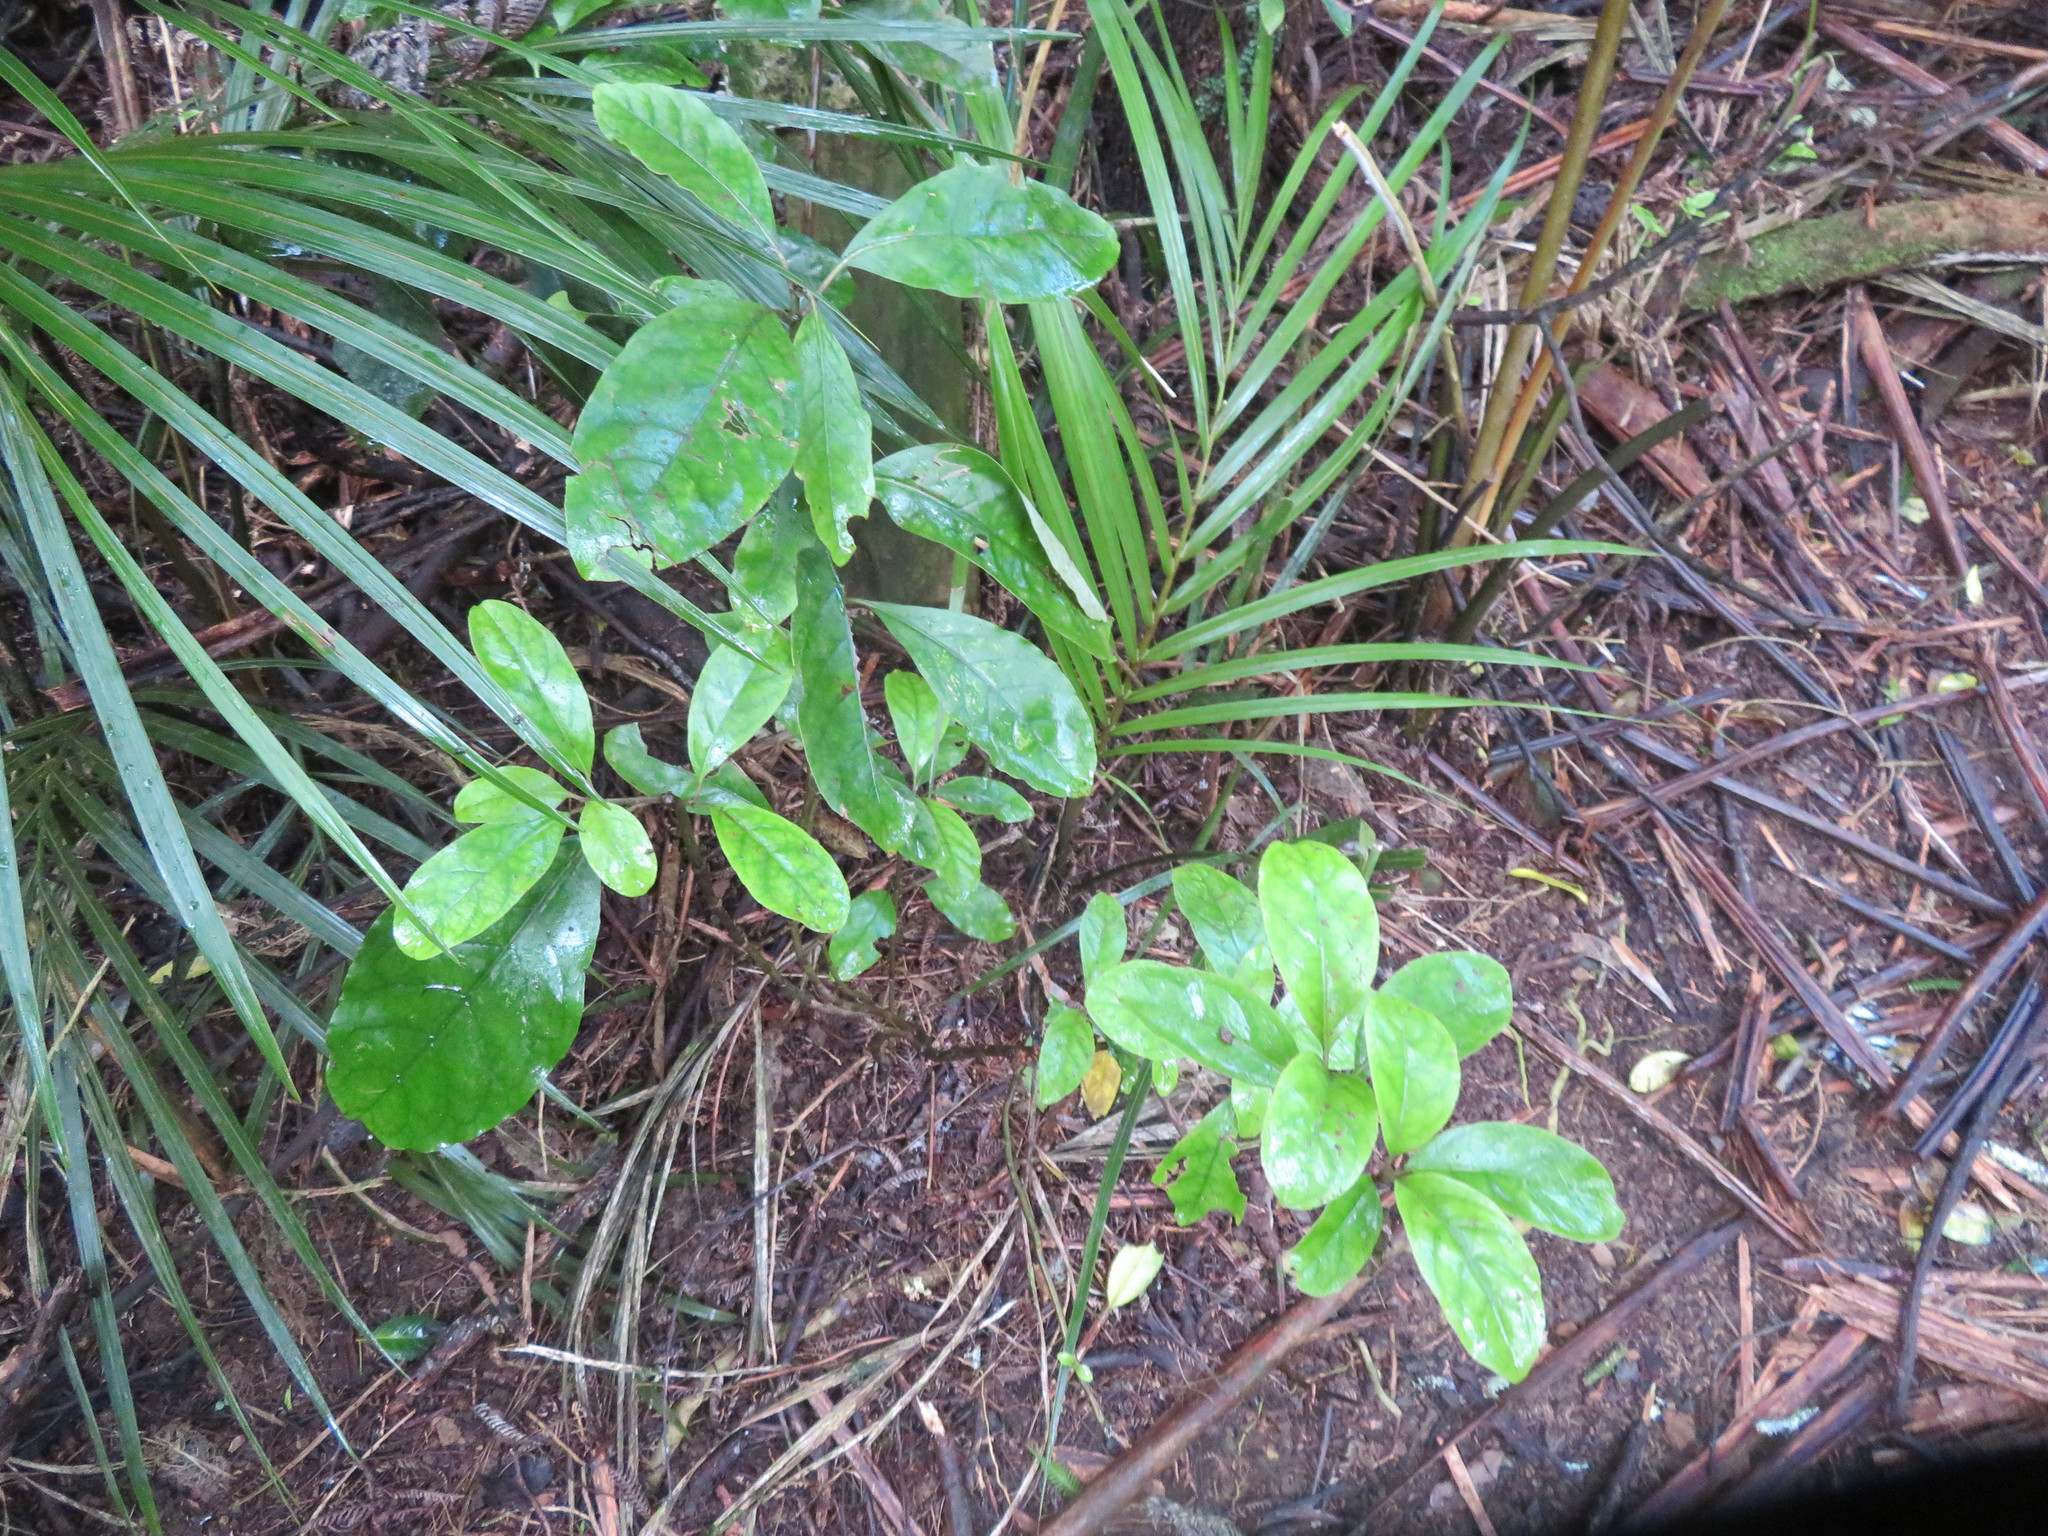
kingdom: Plantae
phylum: Tracheophyta
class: Magnoliopsida
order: Gentianales
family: Rubiaceae
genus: Coprosma
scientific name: Coprosma autumnalis
